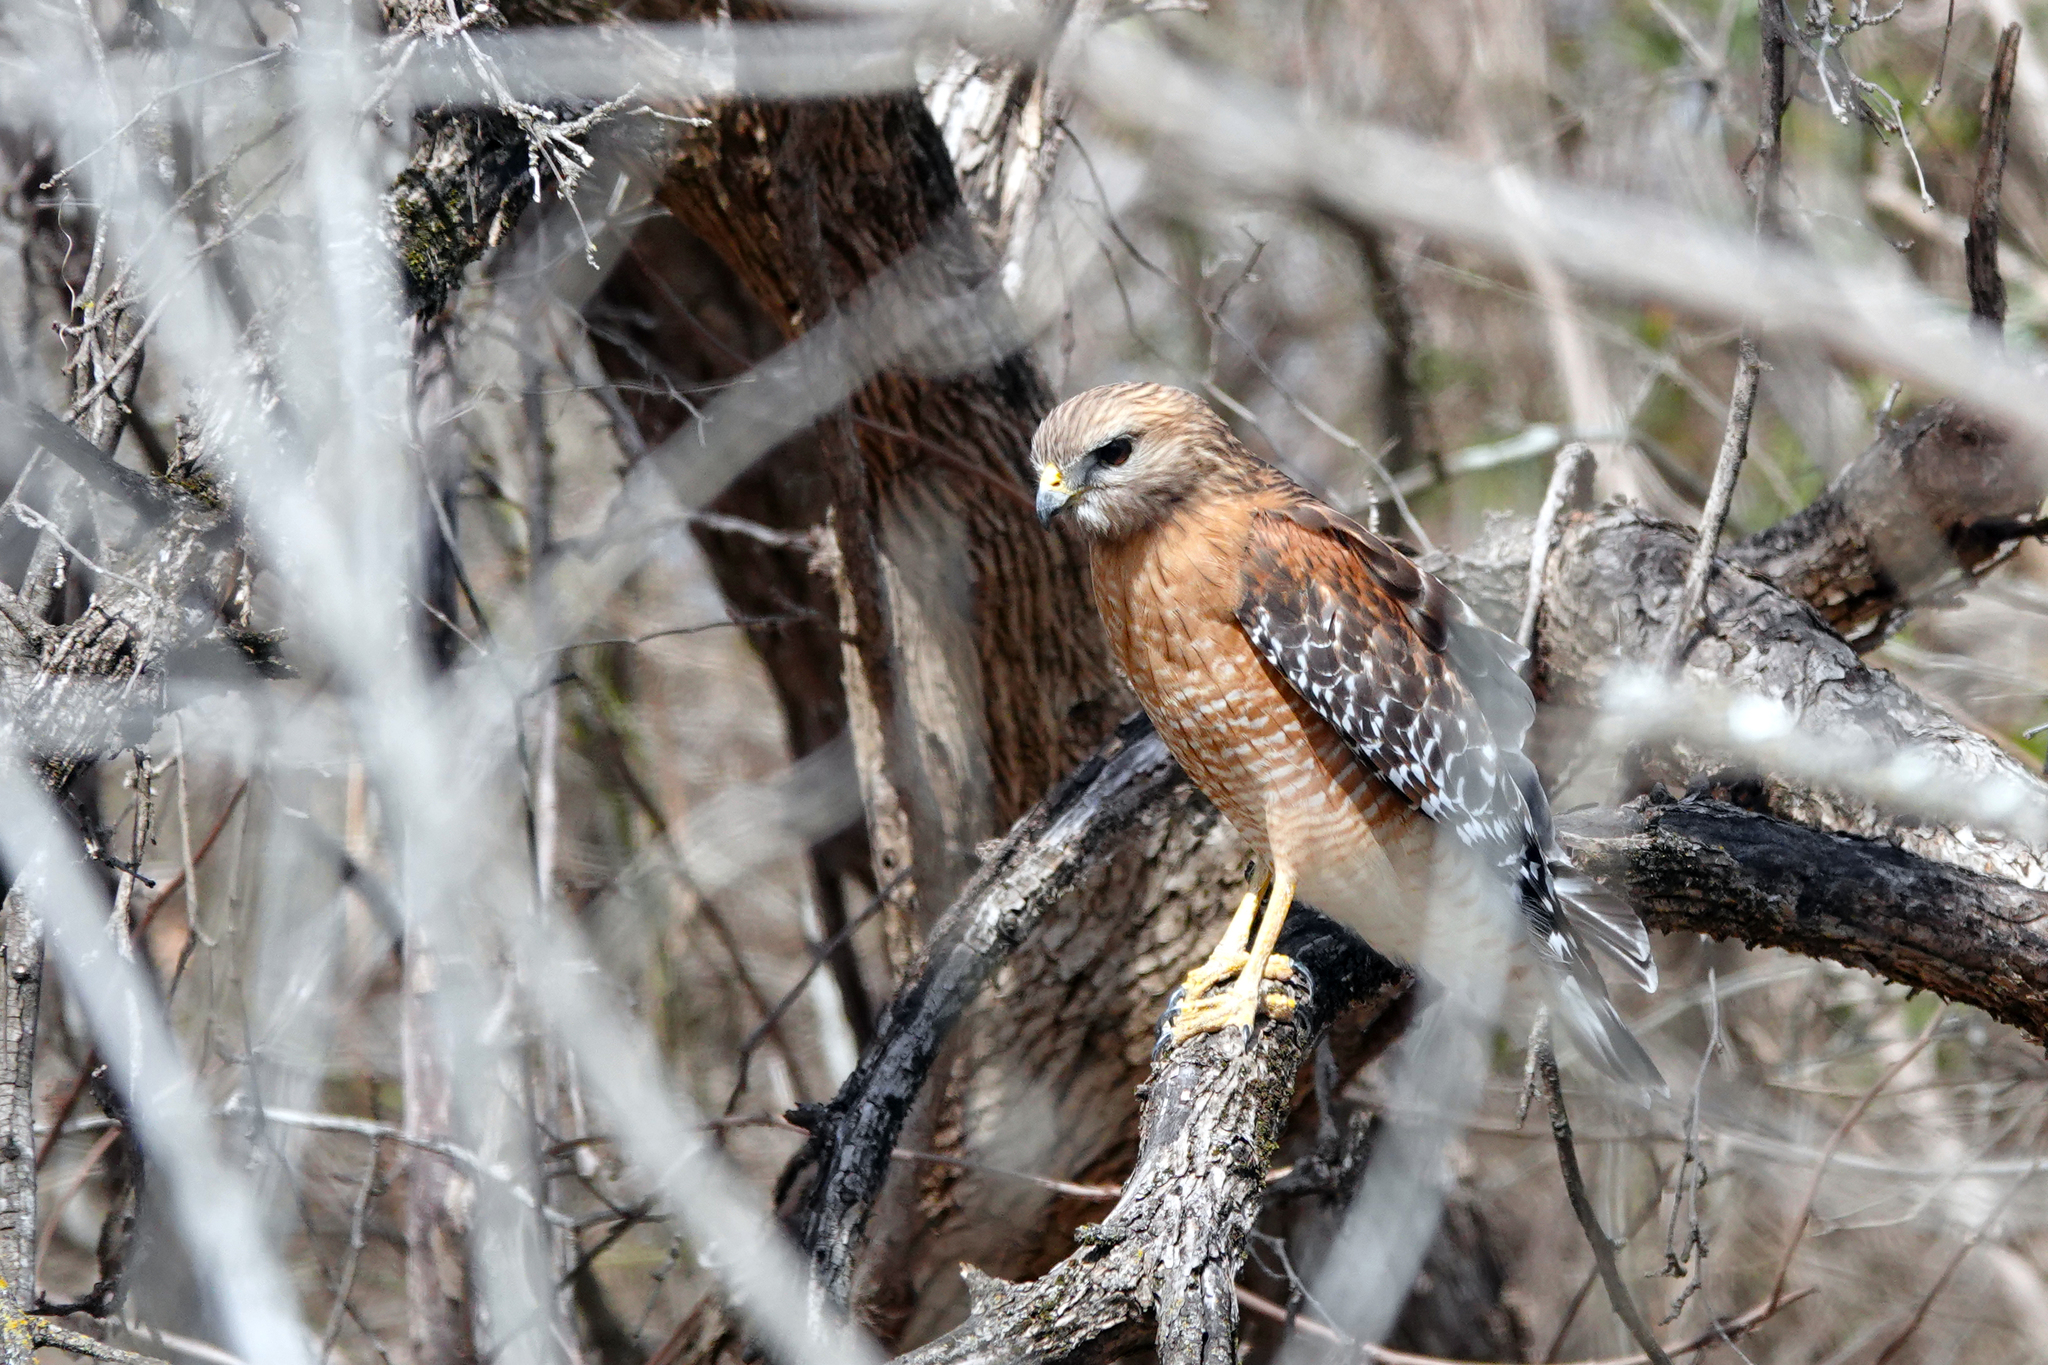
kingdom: Animalia
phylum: Chordata
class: Aves
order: Accipitriformes
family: Accipitridae
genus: Buteo
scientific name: Buteo lineatus
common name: Red-shouldered hawk
